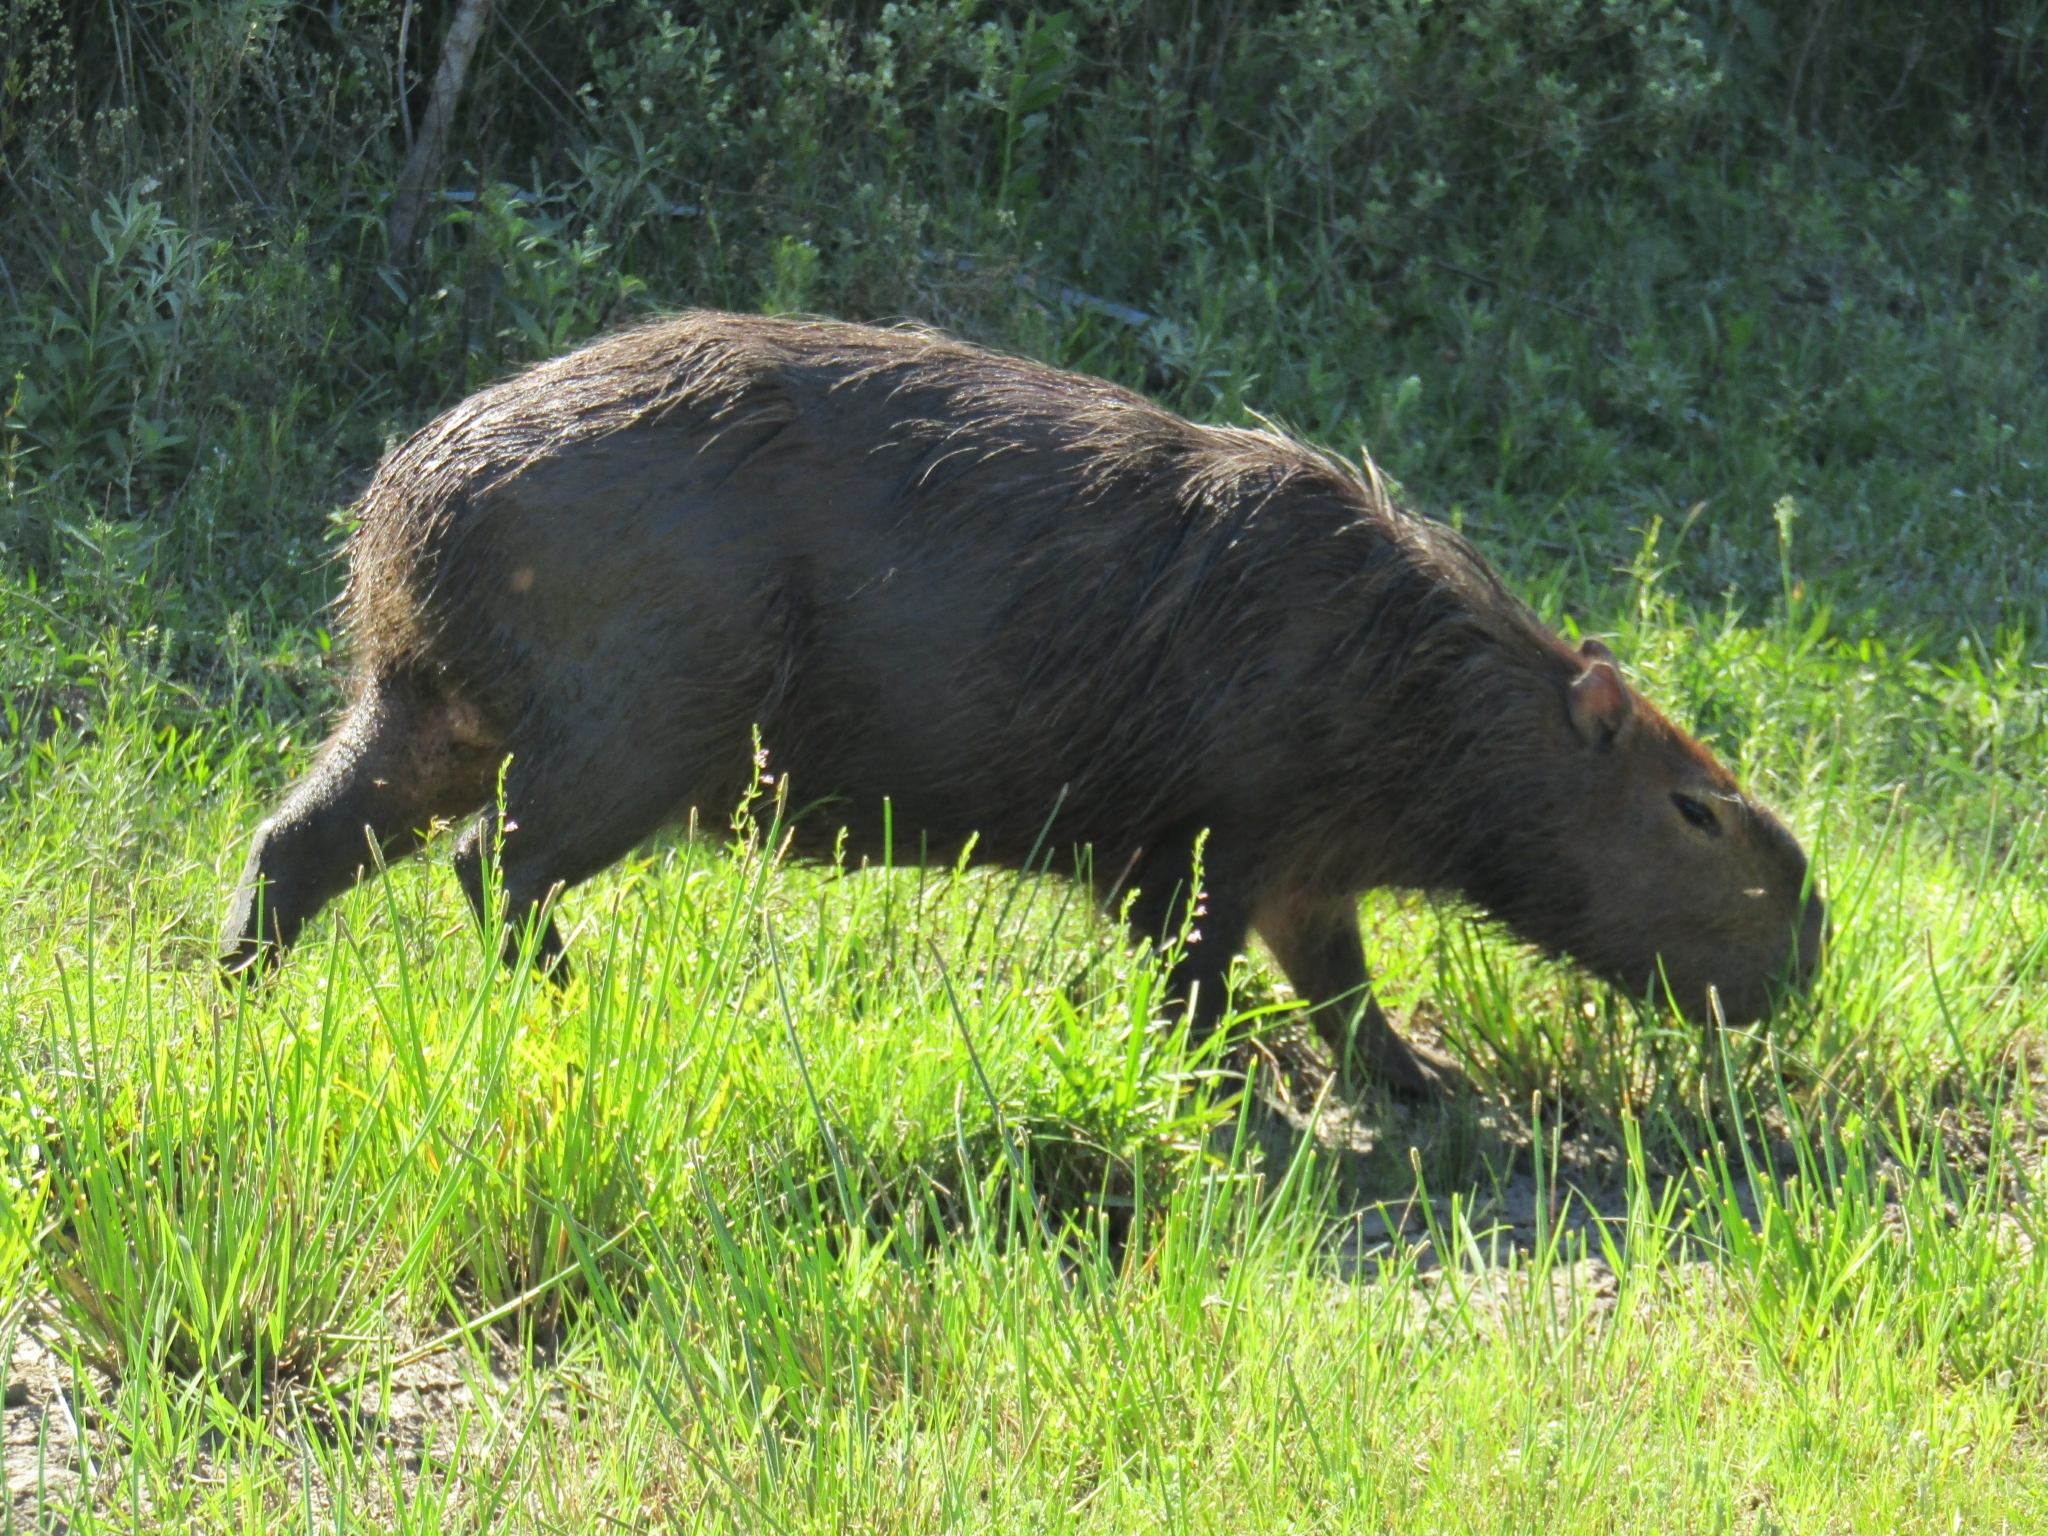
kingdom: Animalia
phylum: Chordata
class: Mammalia
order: Rodentia
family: Caviidae
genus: Hydrochoerus
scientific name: Hydrochoerus hydrochaeris
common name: Capybara
